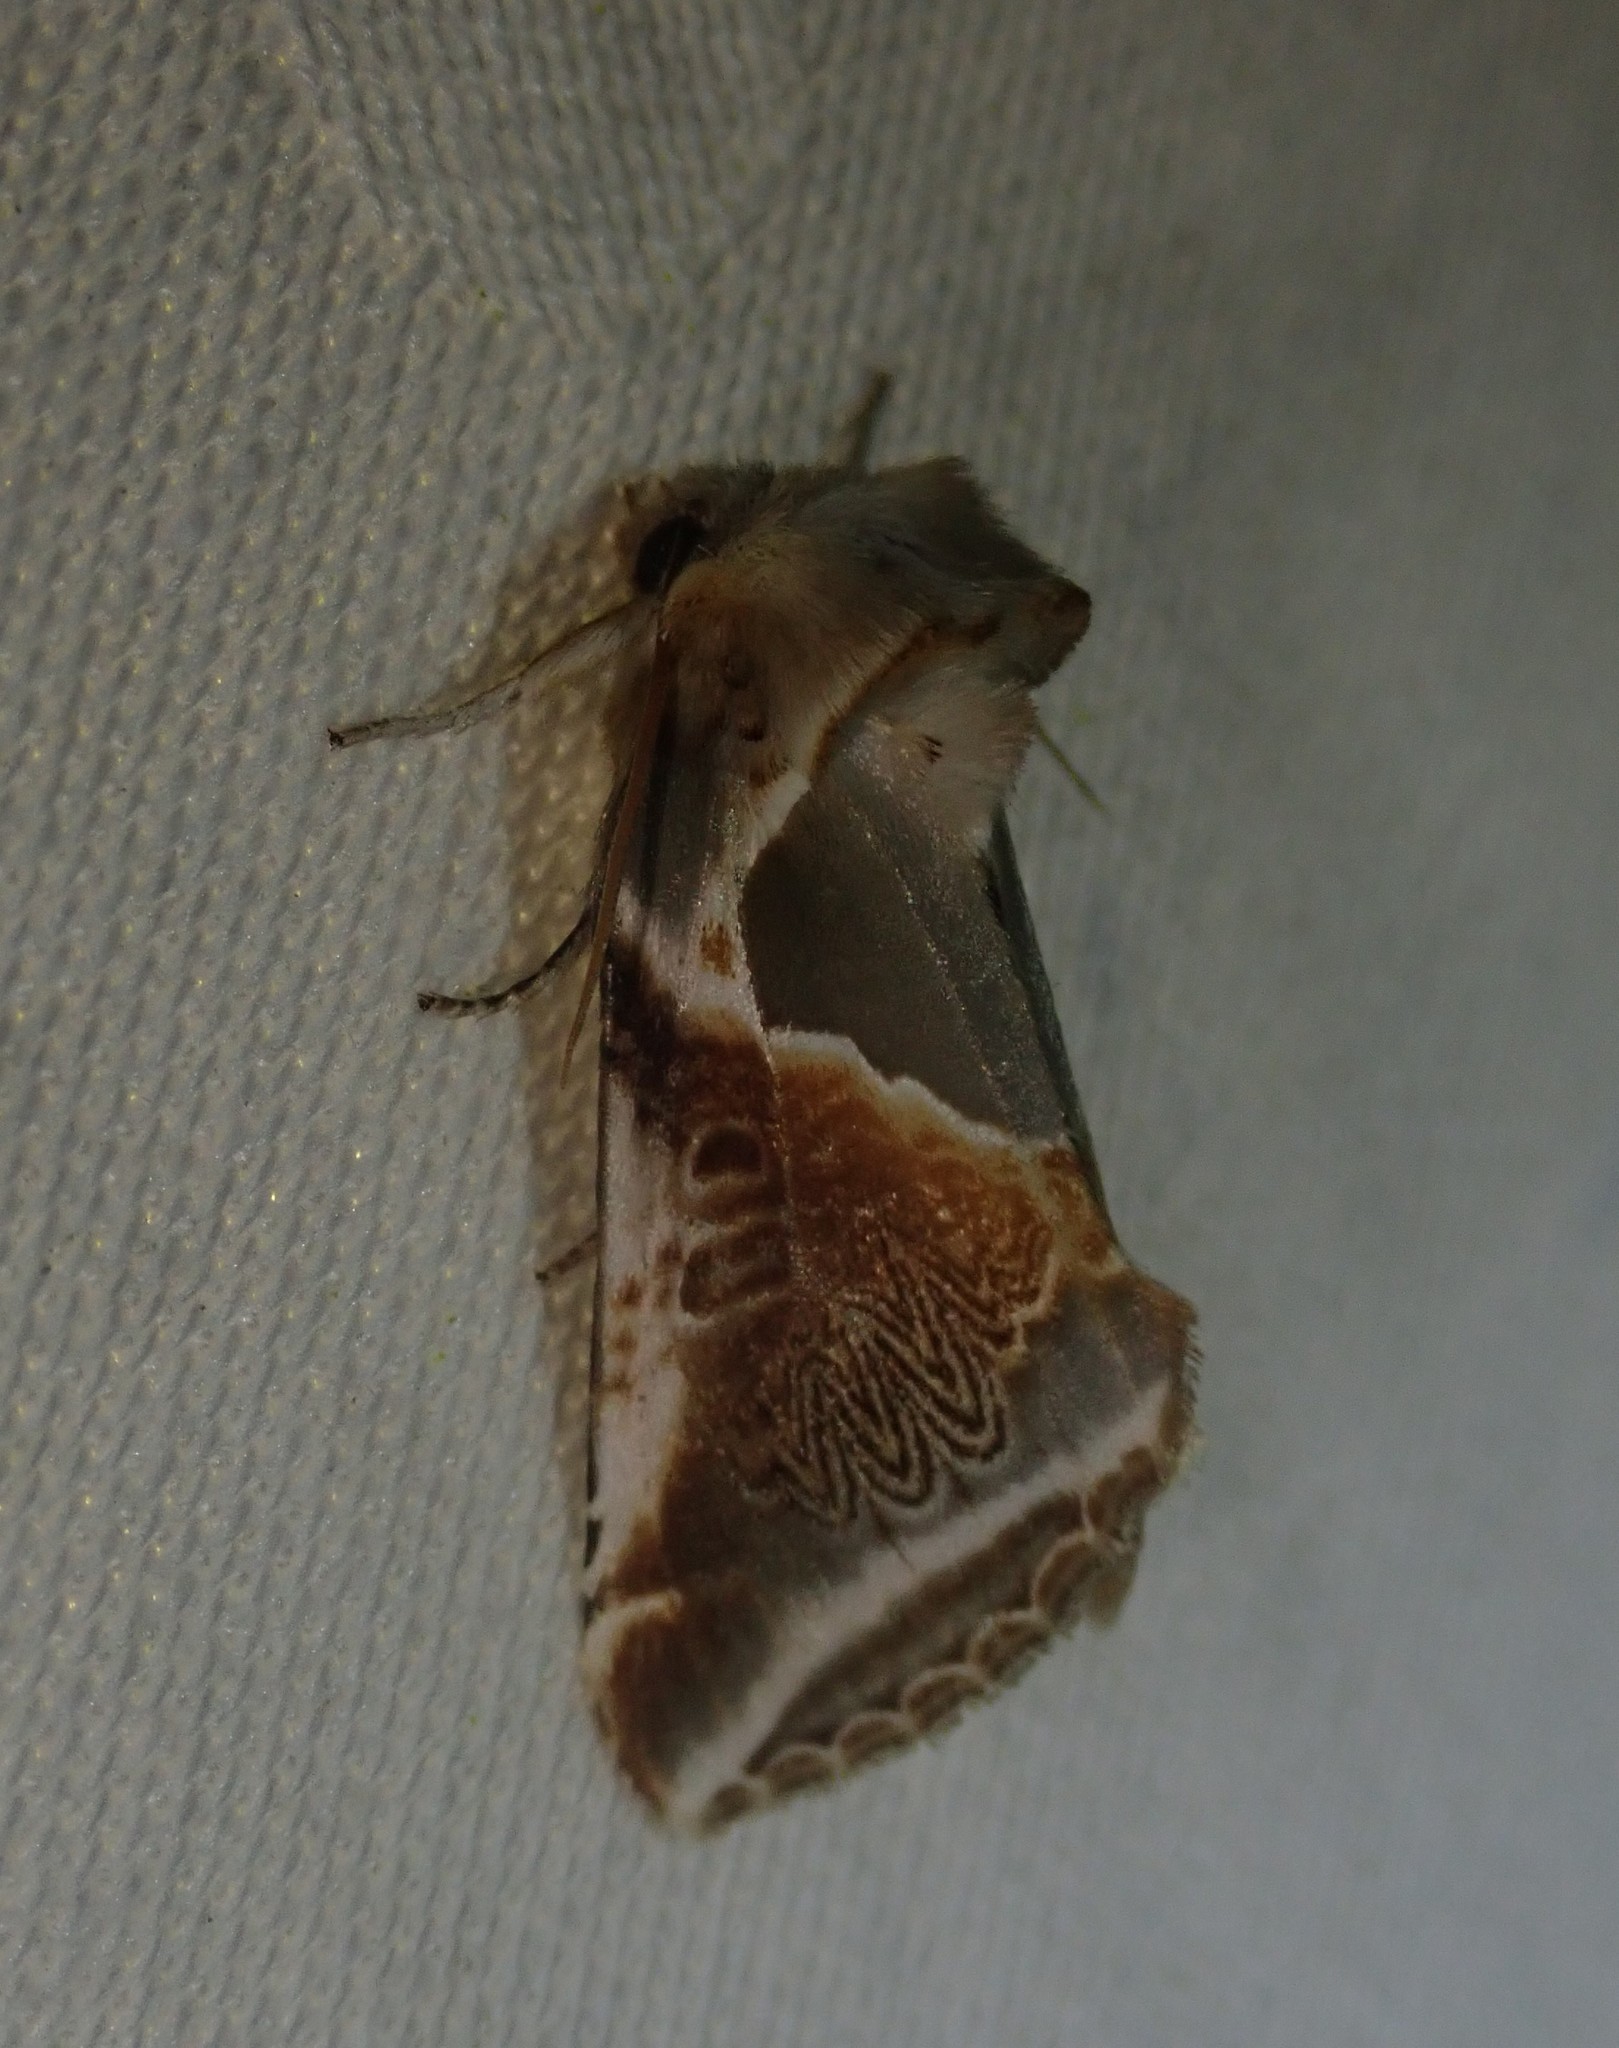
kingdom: Animalia
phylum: Arthropoda
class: Insecta
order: Lepidoptera
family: Drepanidae
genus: Habrosyne
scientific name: Habrosyne pyritoides
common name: Buff arches
